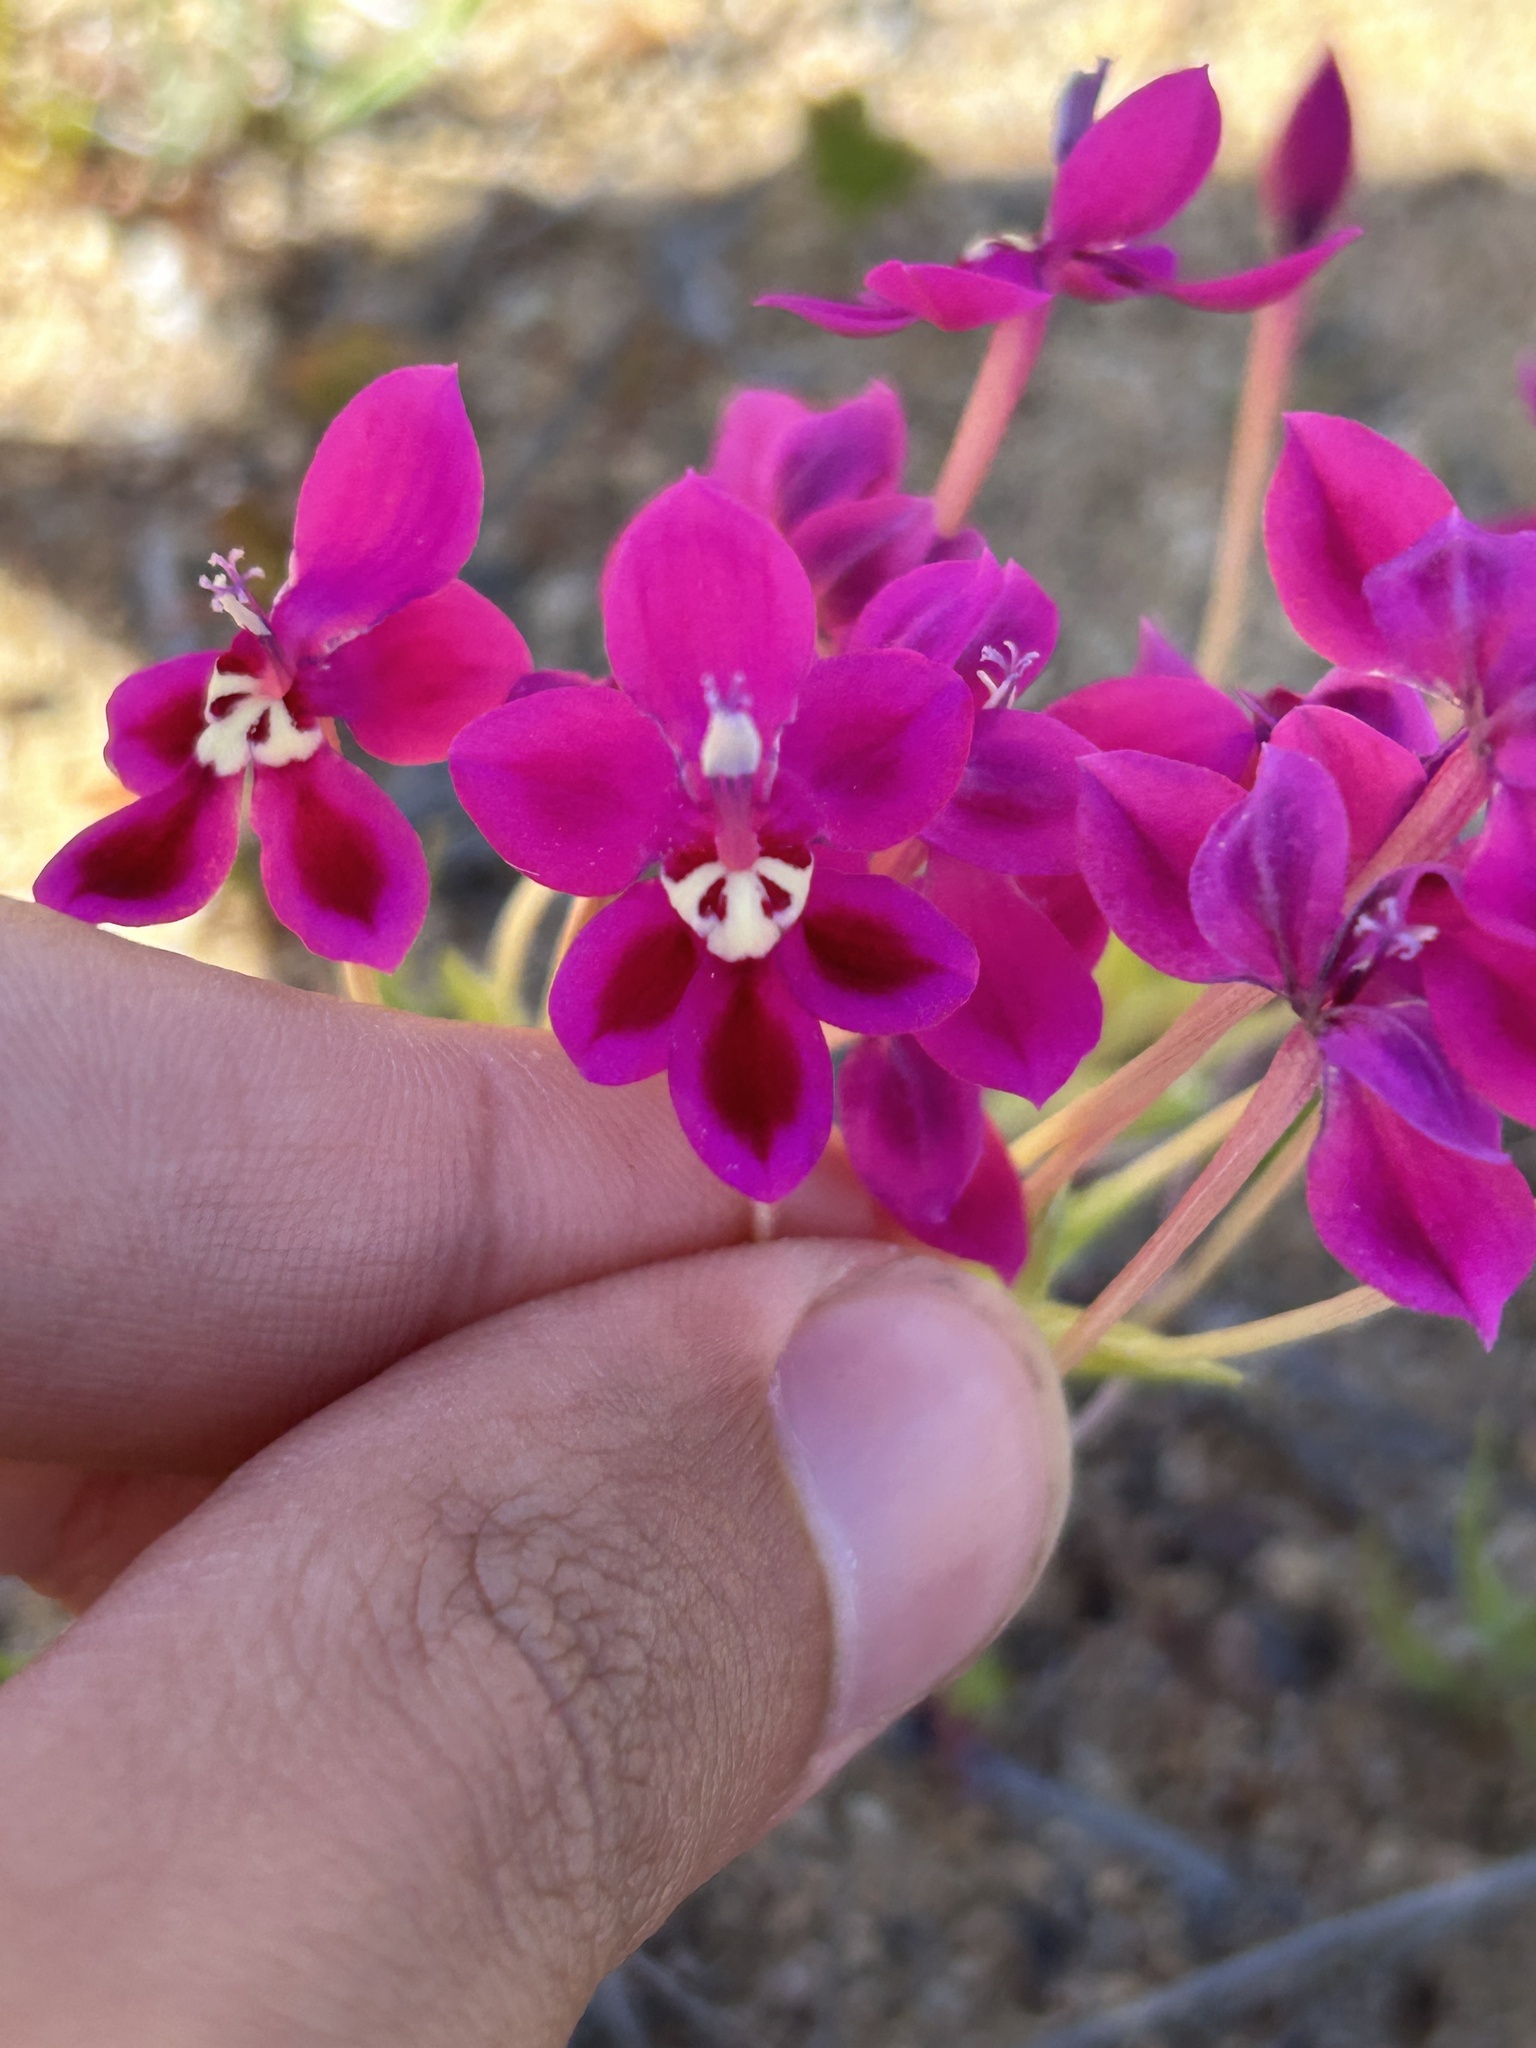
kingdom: Plantae
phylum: Tracheophyta
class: Liliopsida
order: Asparagales
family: Iridaceae
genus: Lapeirousia
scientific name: Lapeirousia silenoides
